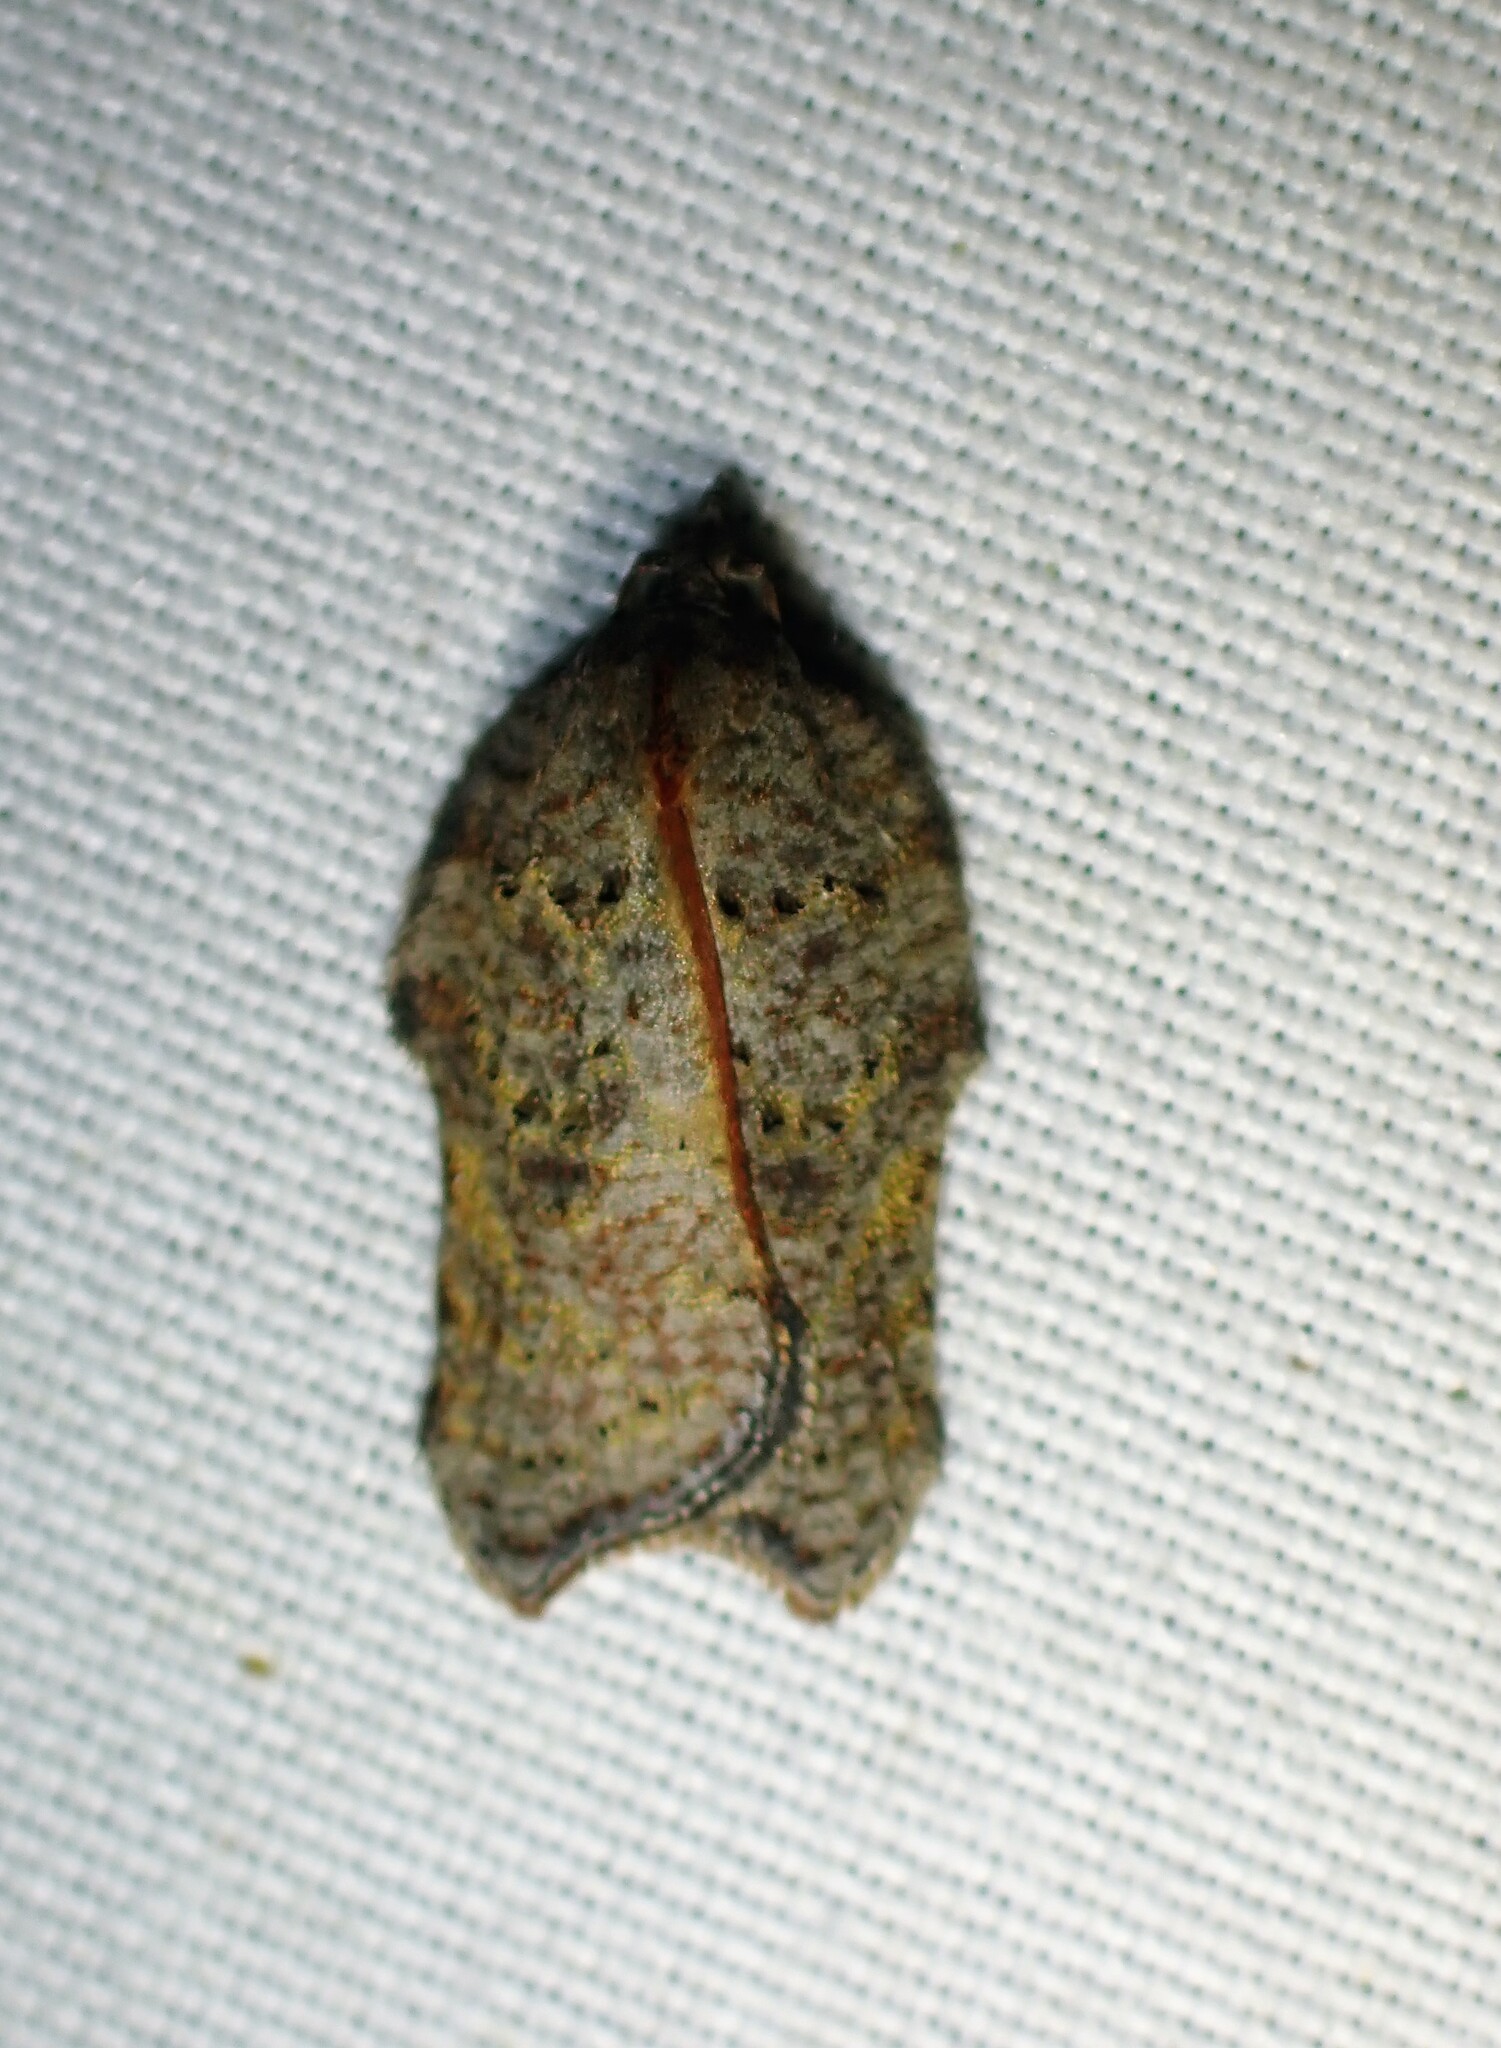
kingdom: Animalia
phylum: Arthropoda
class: Insecta
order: Lepidoptera
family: Tortricidae
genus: Acleris
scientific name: Acleris effractana
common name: Hook-winged tortrix moth
